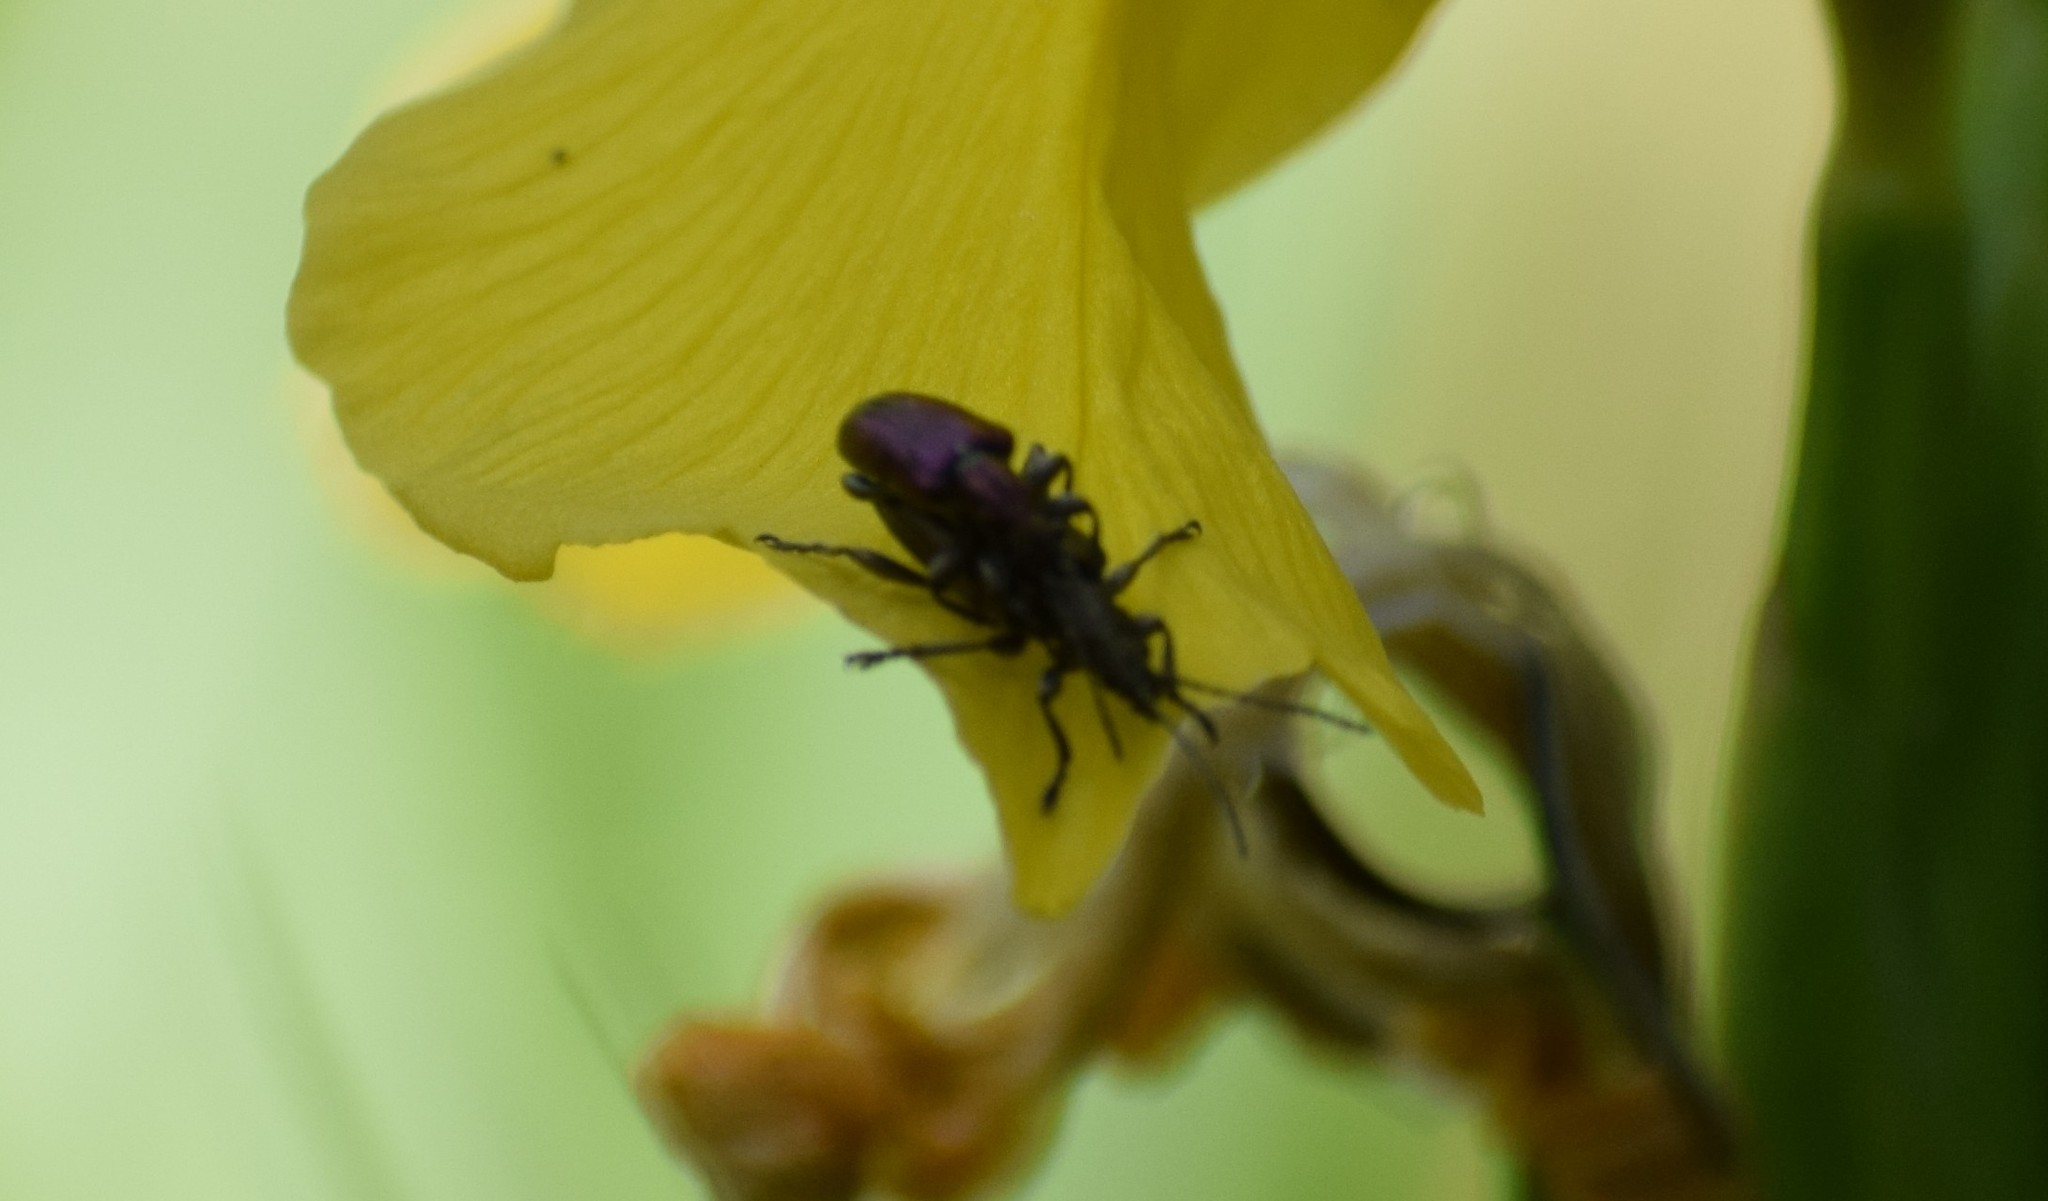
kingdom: Animalia
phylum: Arthropoda
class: Insecta
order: Coleoptera
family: Chrysomelidae
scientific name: Chrysomelidae
